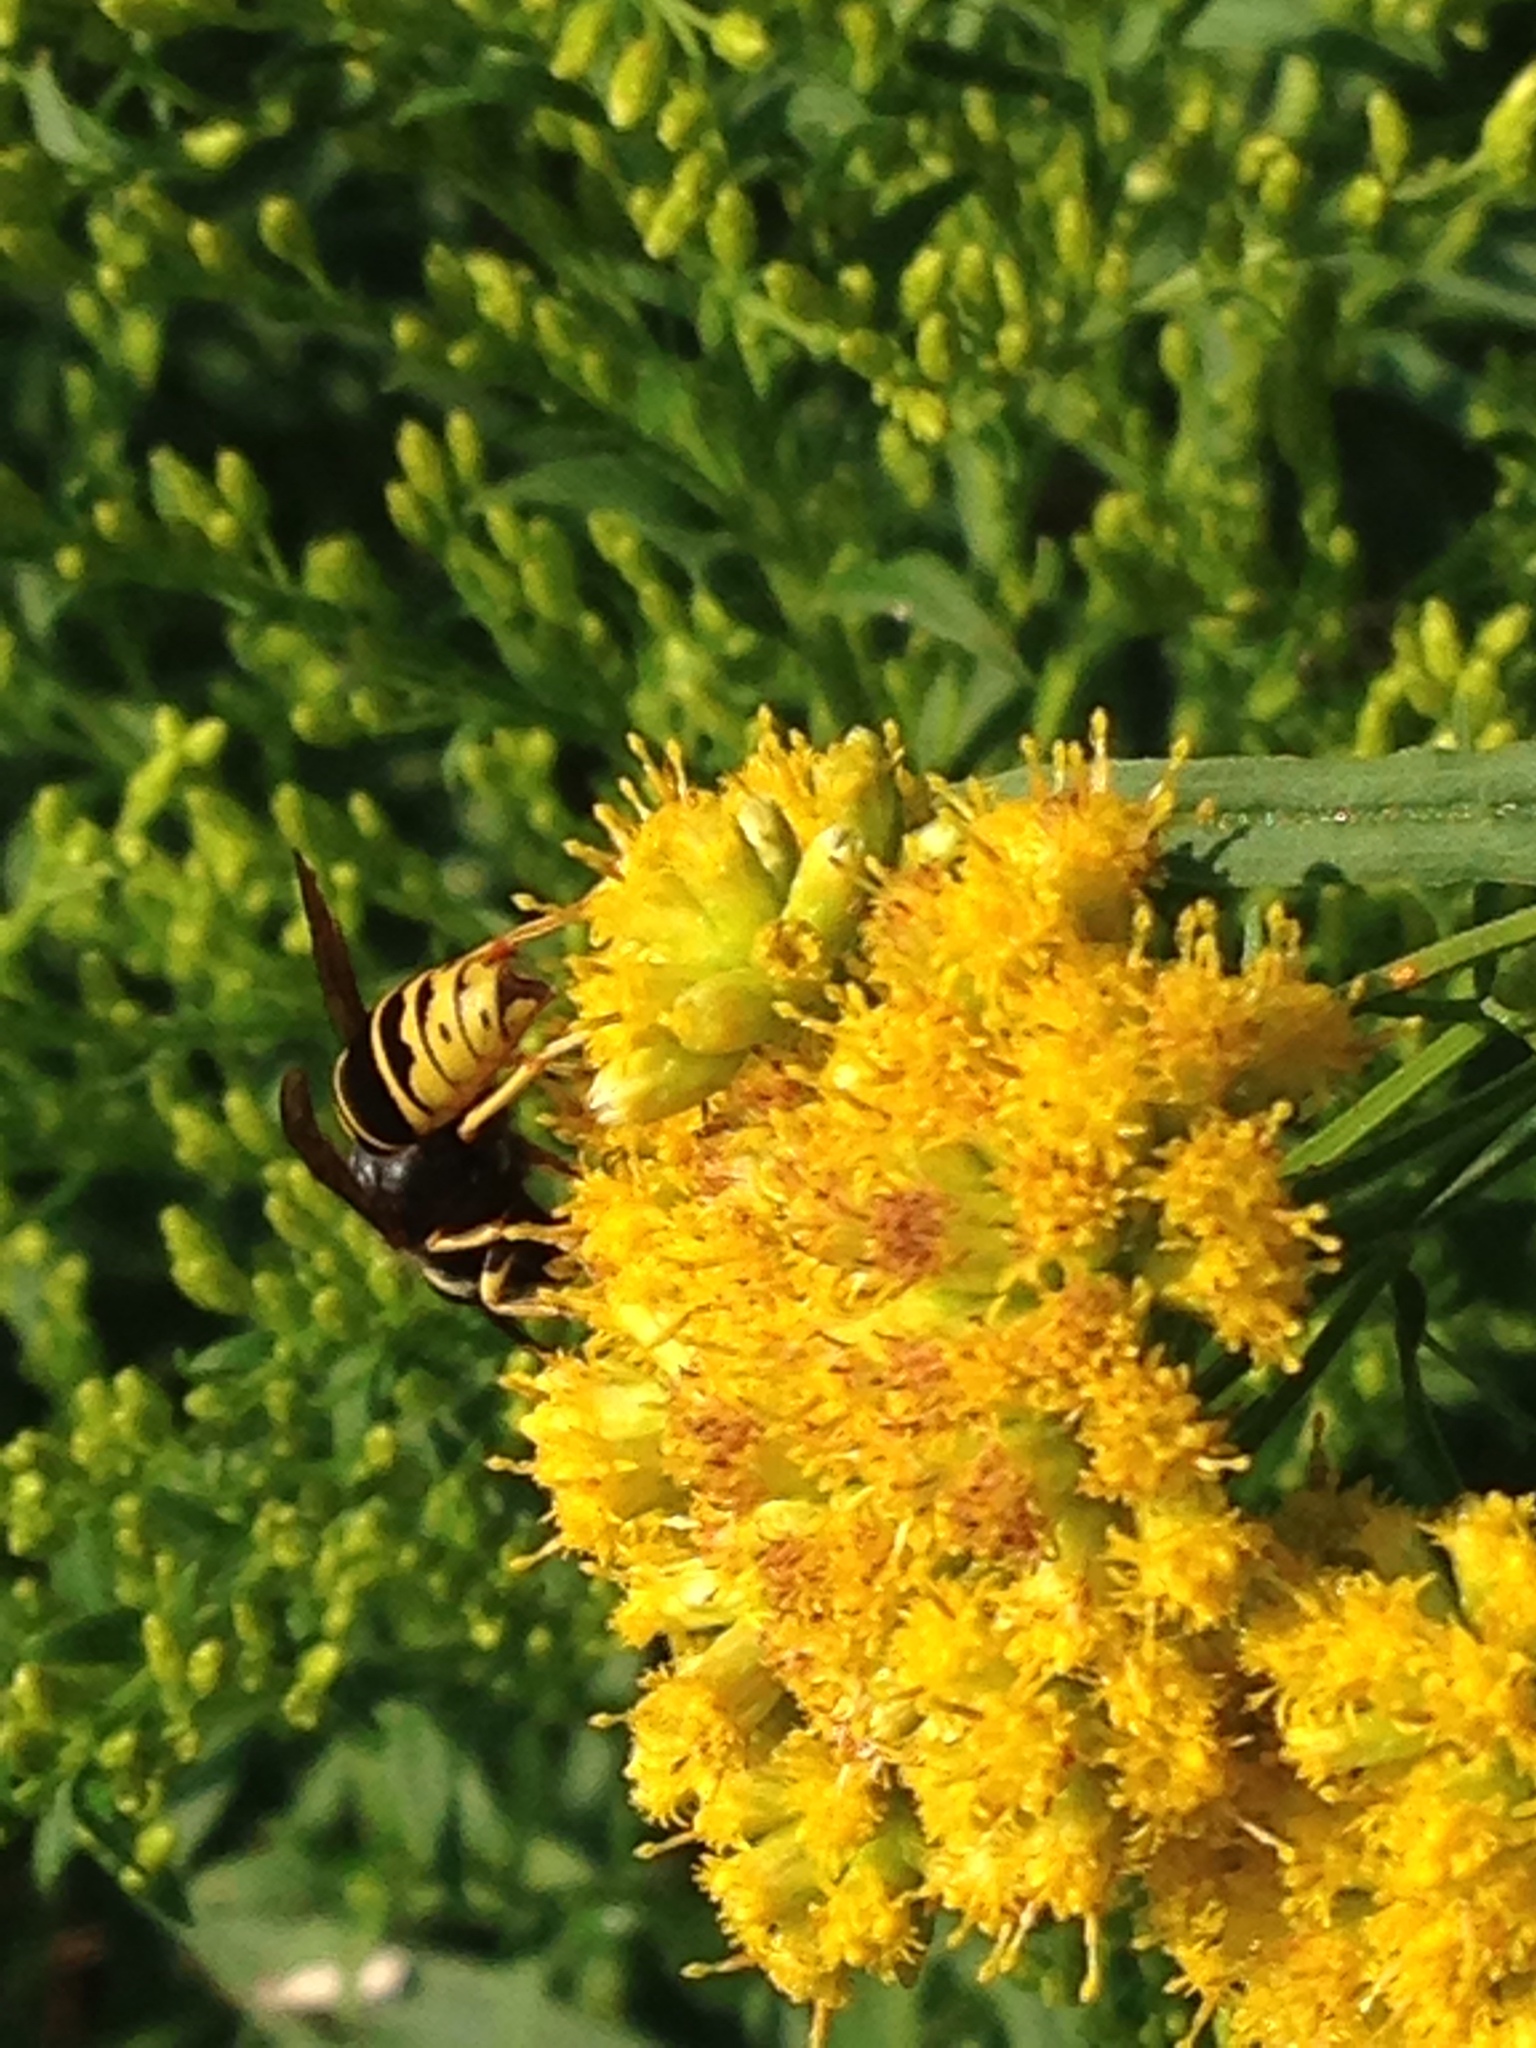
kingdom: Animalia
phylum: Arthropoda
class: Insecta
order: Hymenoptera
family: Vespidae
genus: Vespula
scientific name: Vespula vidua
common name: Widow yellowjacket
